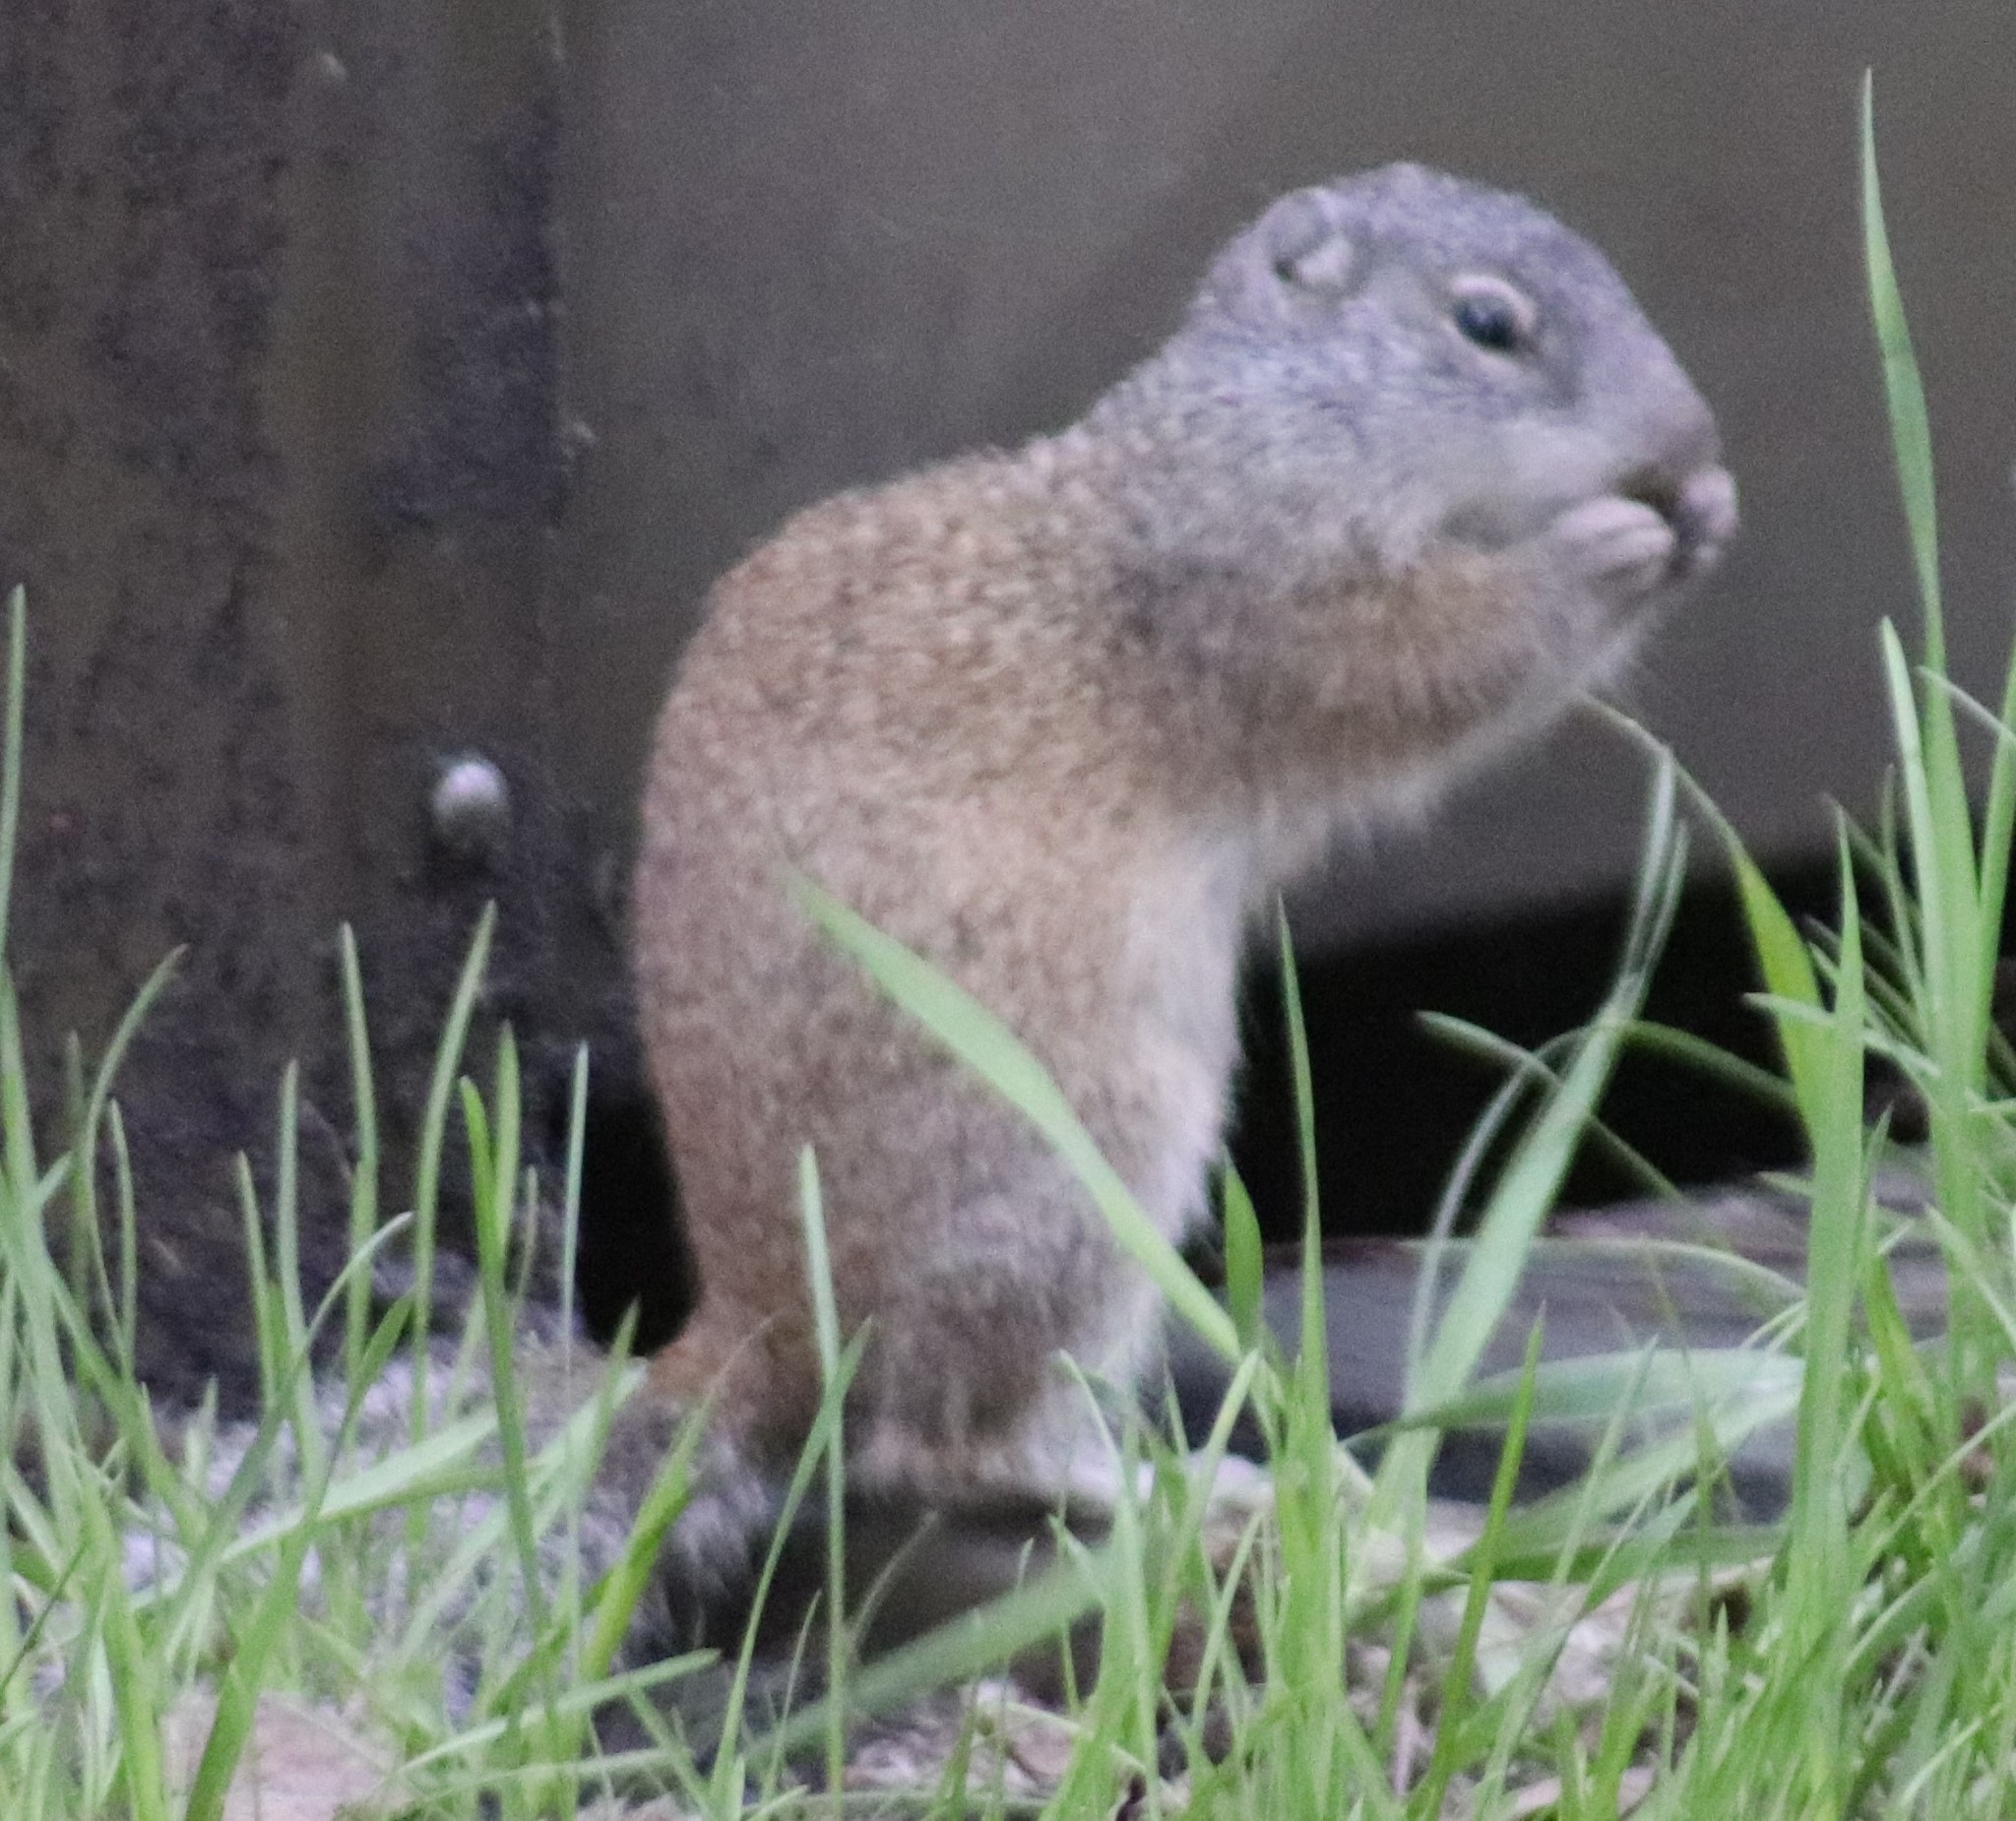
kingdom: Animalia
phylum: Chordata
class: Mammalia
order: Rodentia
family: Sciuridae
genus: Poliocitellus
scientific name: Poliocitellus franklinii
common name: Franklin's ground squirrel
